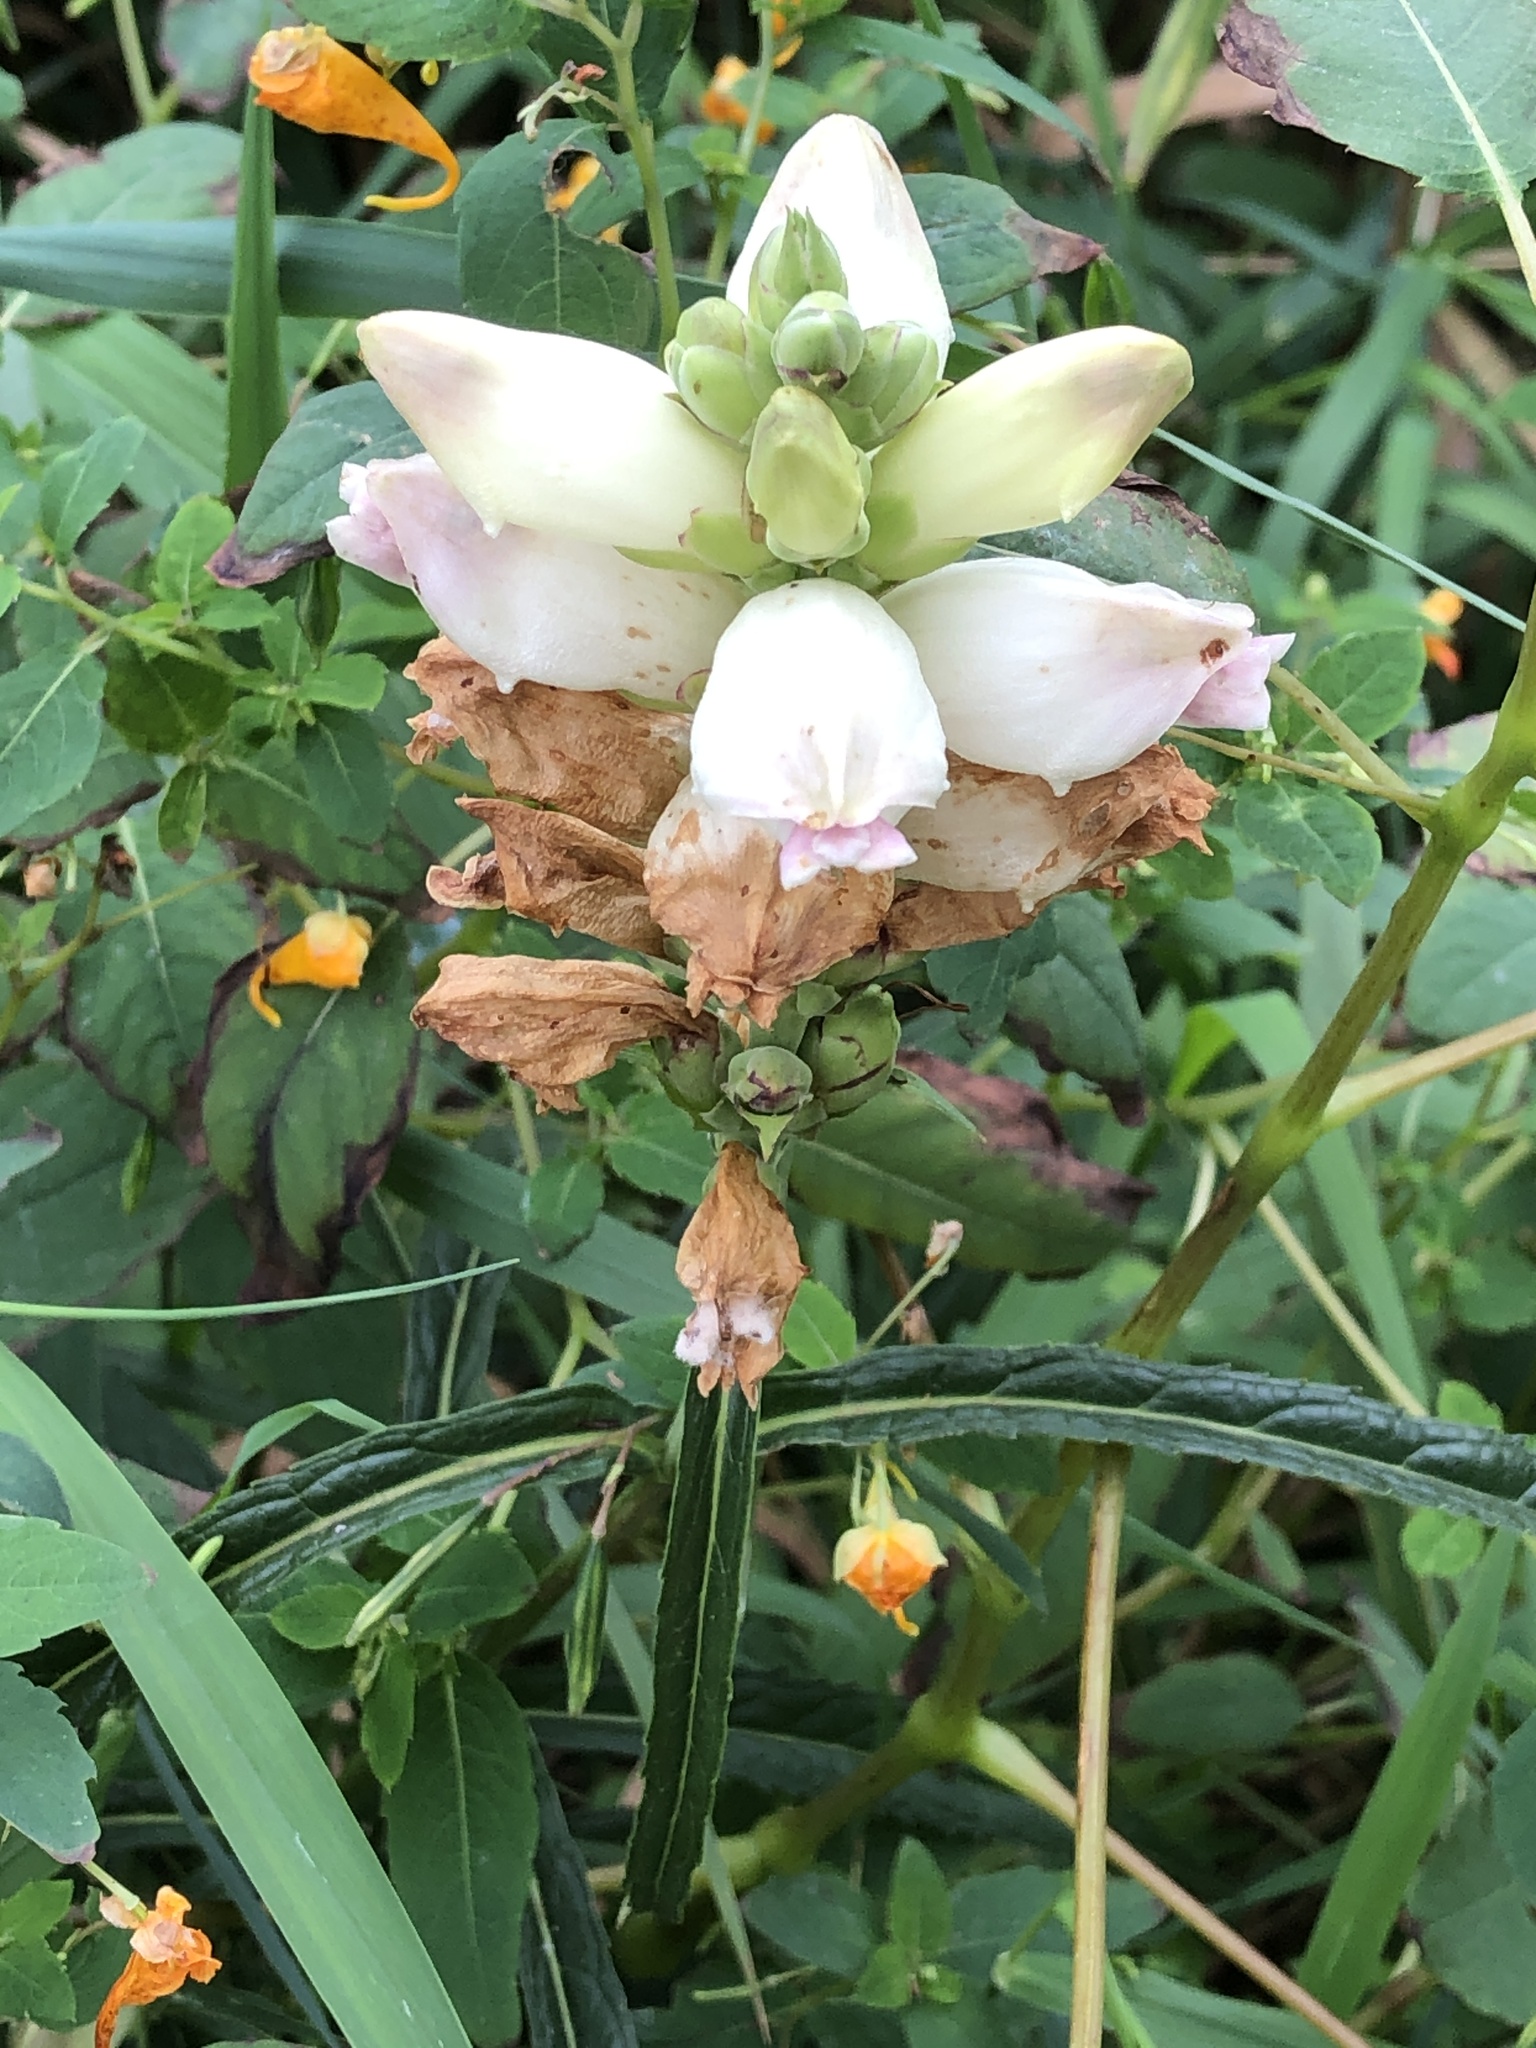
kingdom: Plantae
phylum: Tracheophyta
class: Magnoliopsida
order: Lamiales
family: Plantaginaceae
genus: Chelone
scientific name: Chelone glabra
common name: Snakehead
